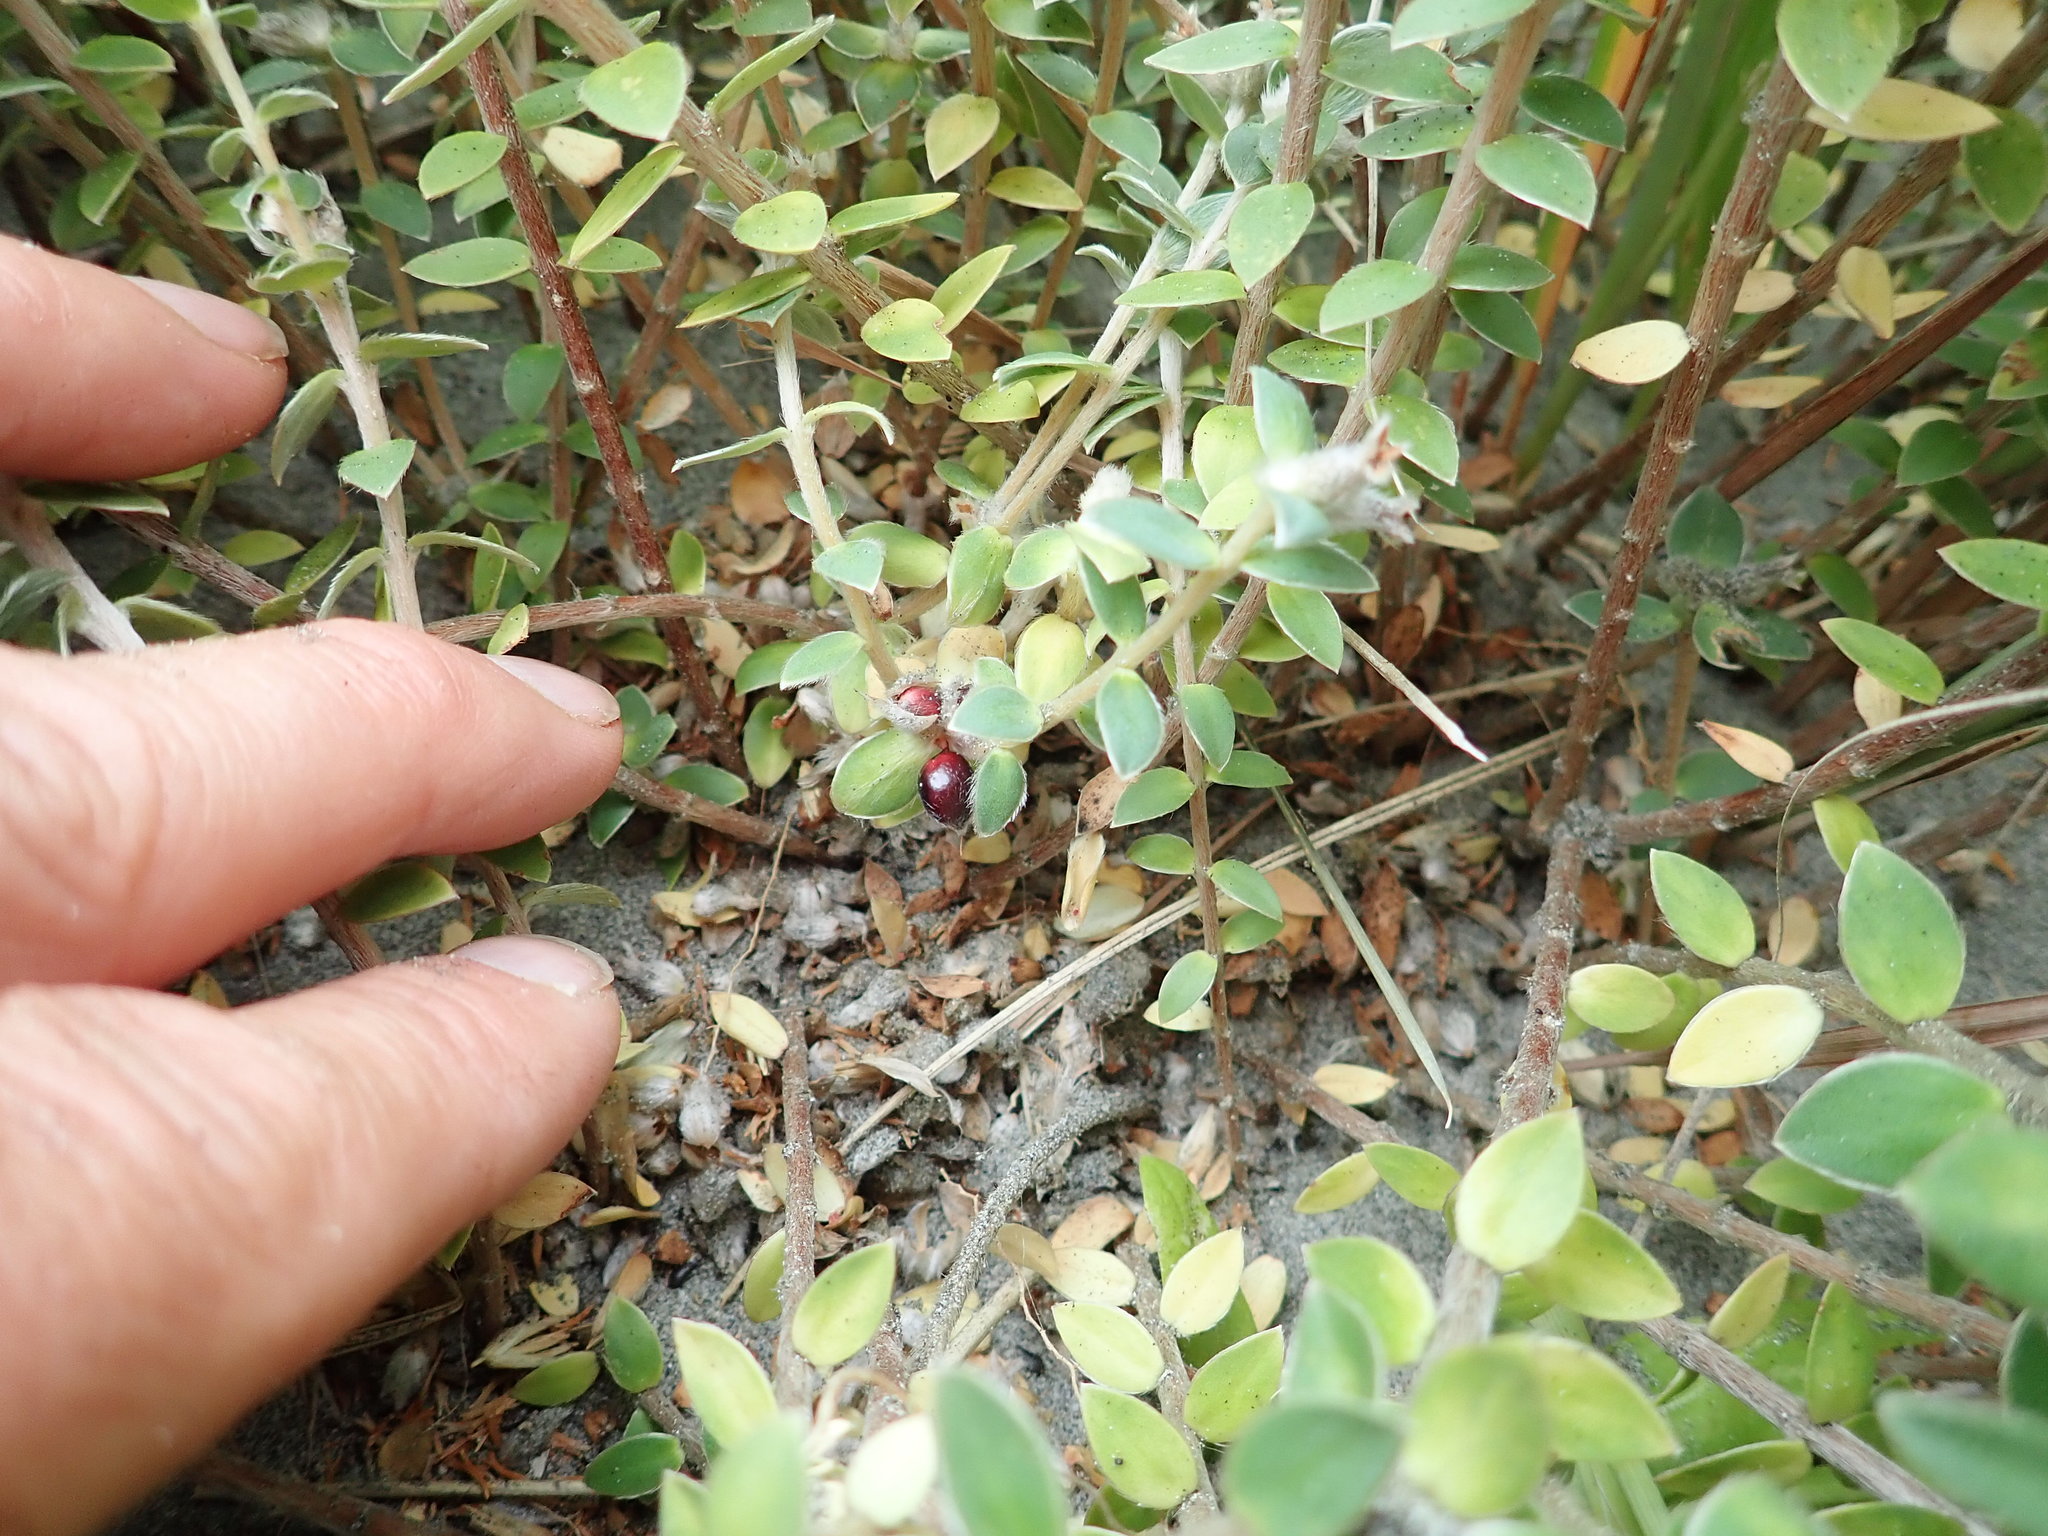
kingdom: Plantae
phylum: Tracheophyta
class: Magnoliopsida
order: Malvales
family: Thymelaeaceae
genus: Pimelea
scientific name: Pimelea villosa
